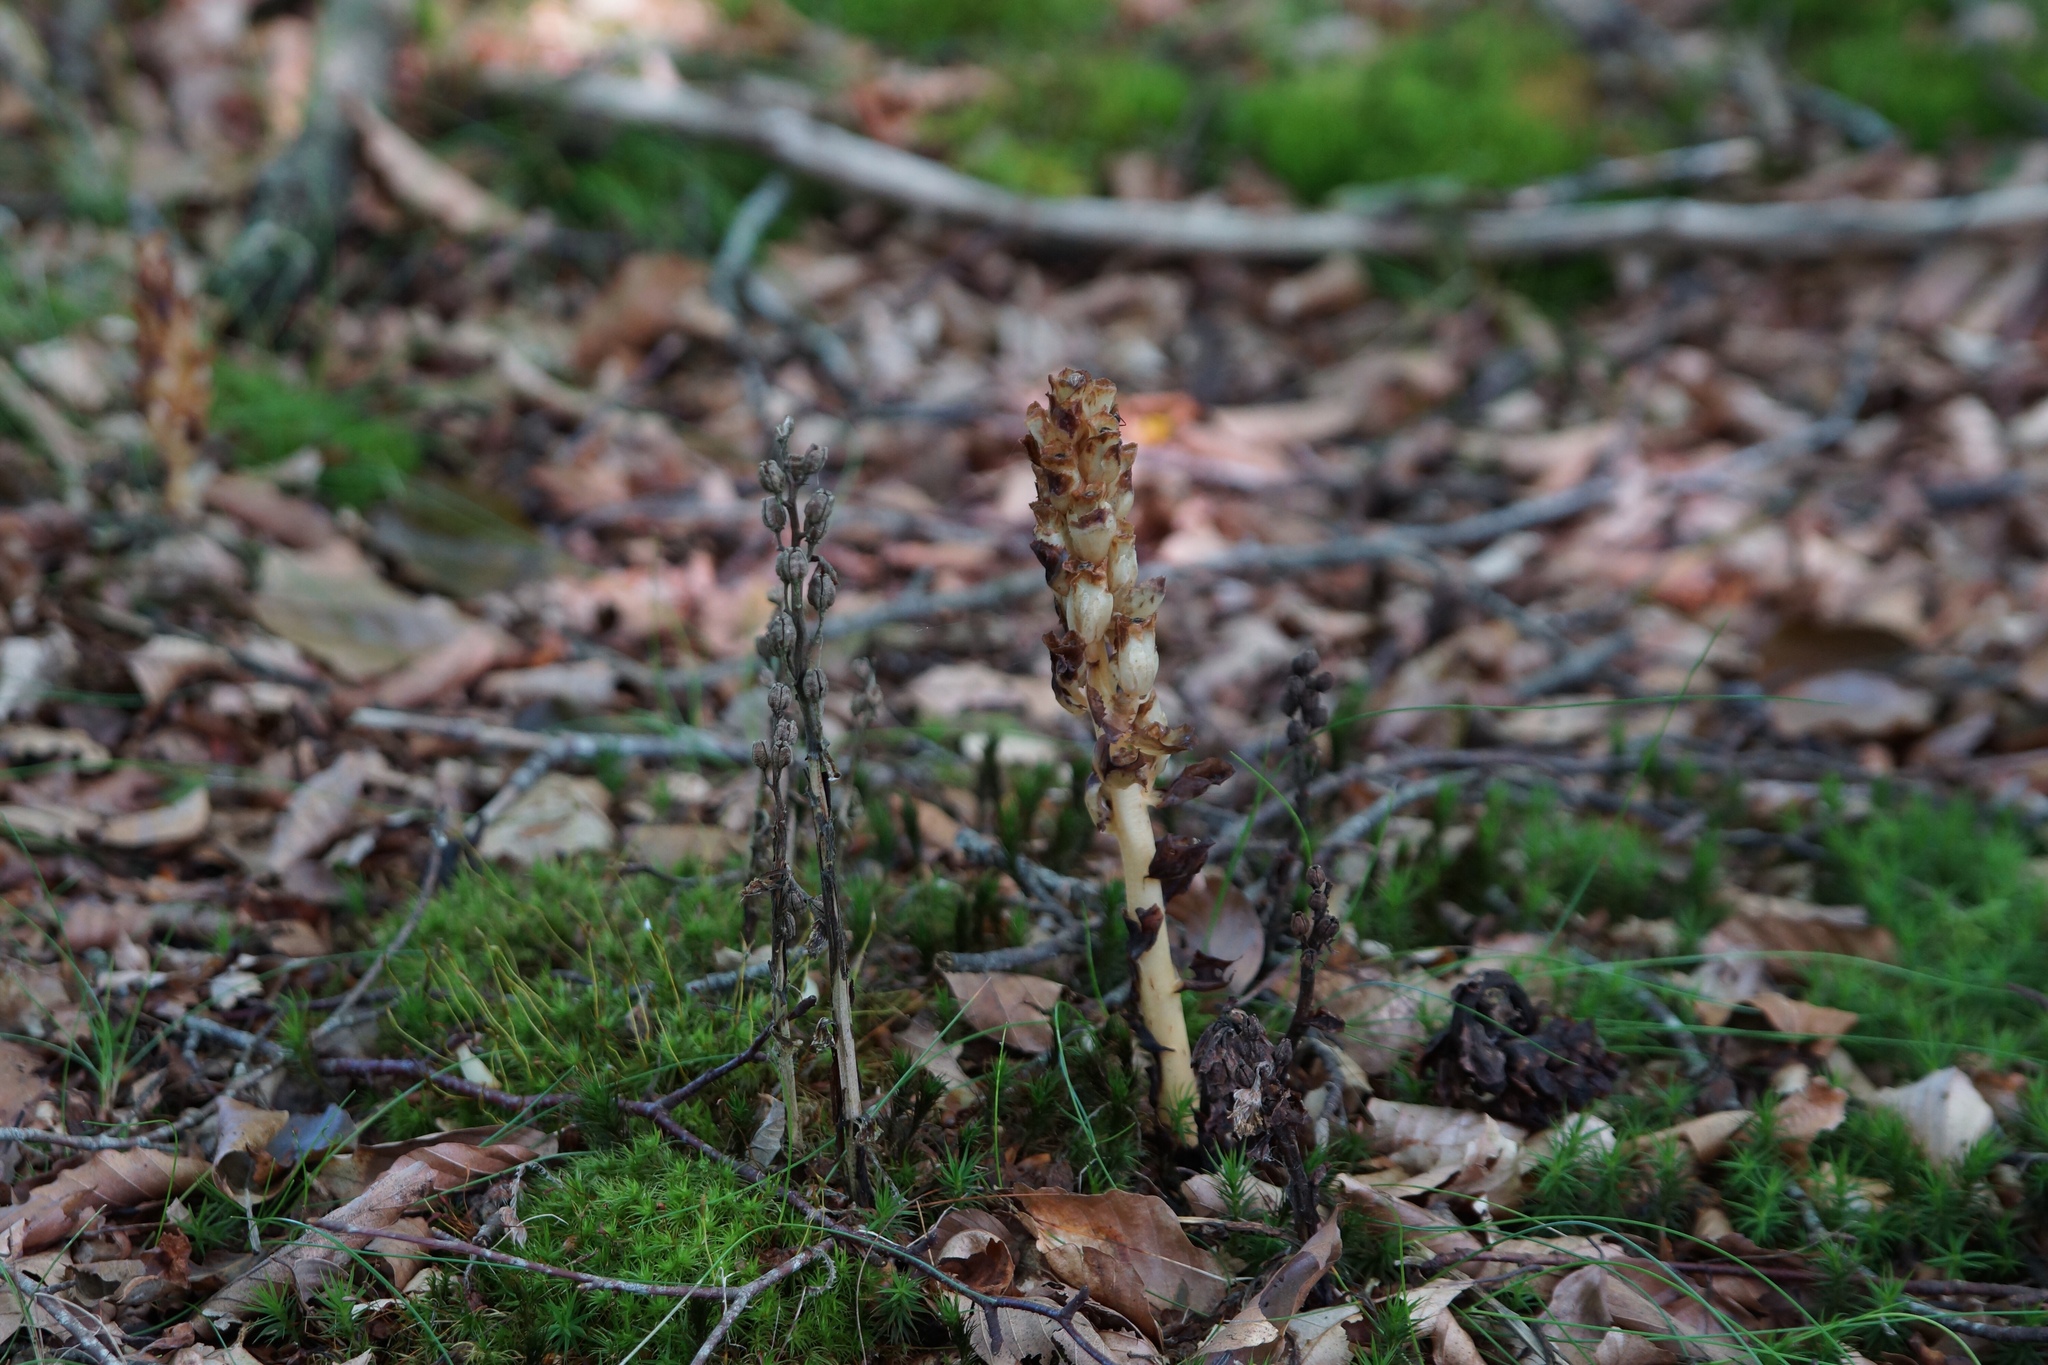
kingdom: Plantae
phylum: Tracheophyta
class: Magnoliopsida
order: Ericales
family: Ericaceae
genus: Hypopitys
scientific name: Hypopitys monotropa
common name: Yellow bird's-nest
